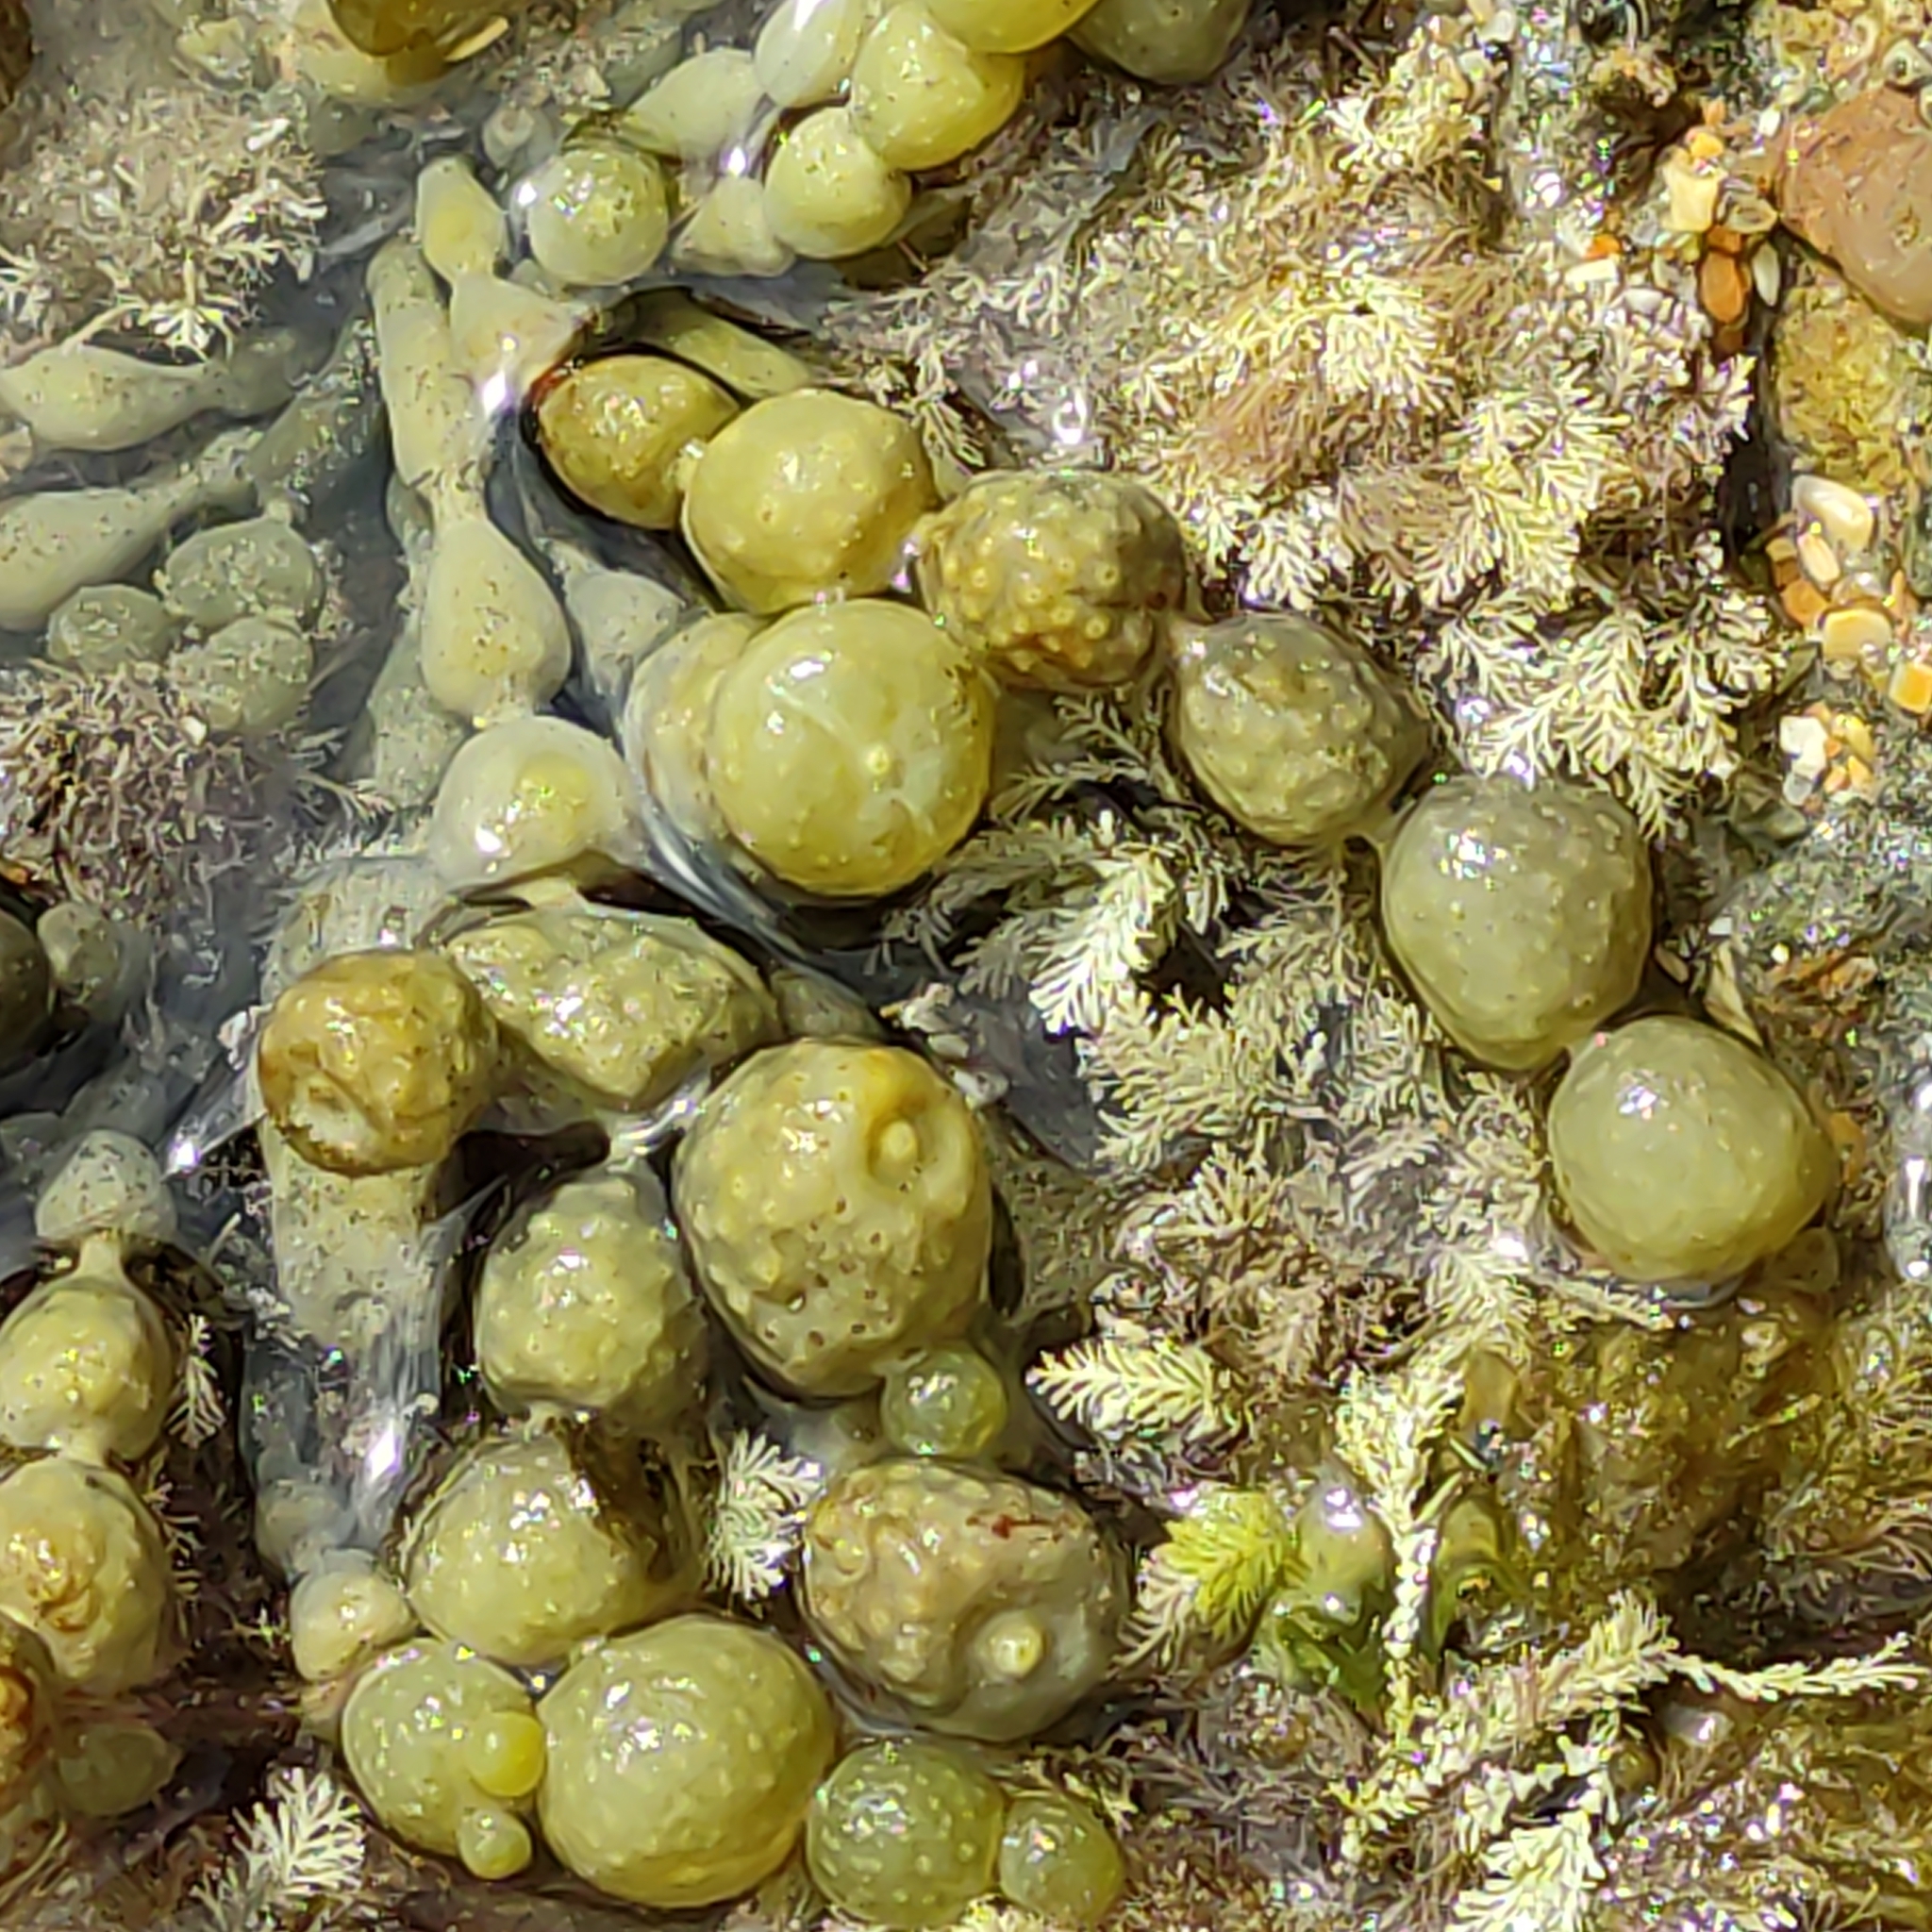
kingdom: Chromista
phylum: Ochrophyta
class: Phaeophyceae
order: Fucales
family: Hormosiraceae
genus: Hormosira
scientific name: Hormosira banksii
